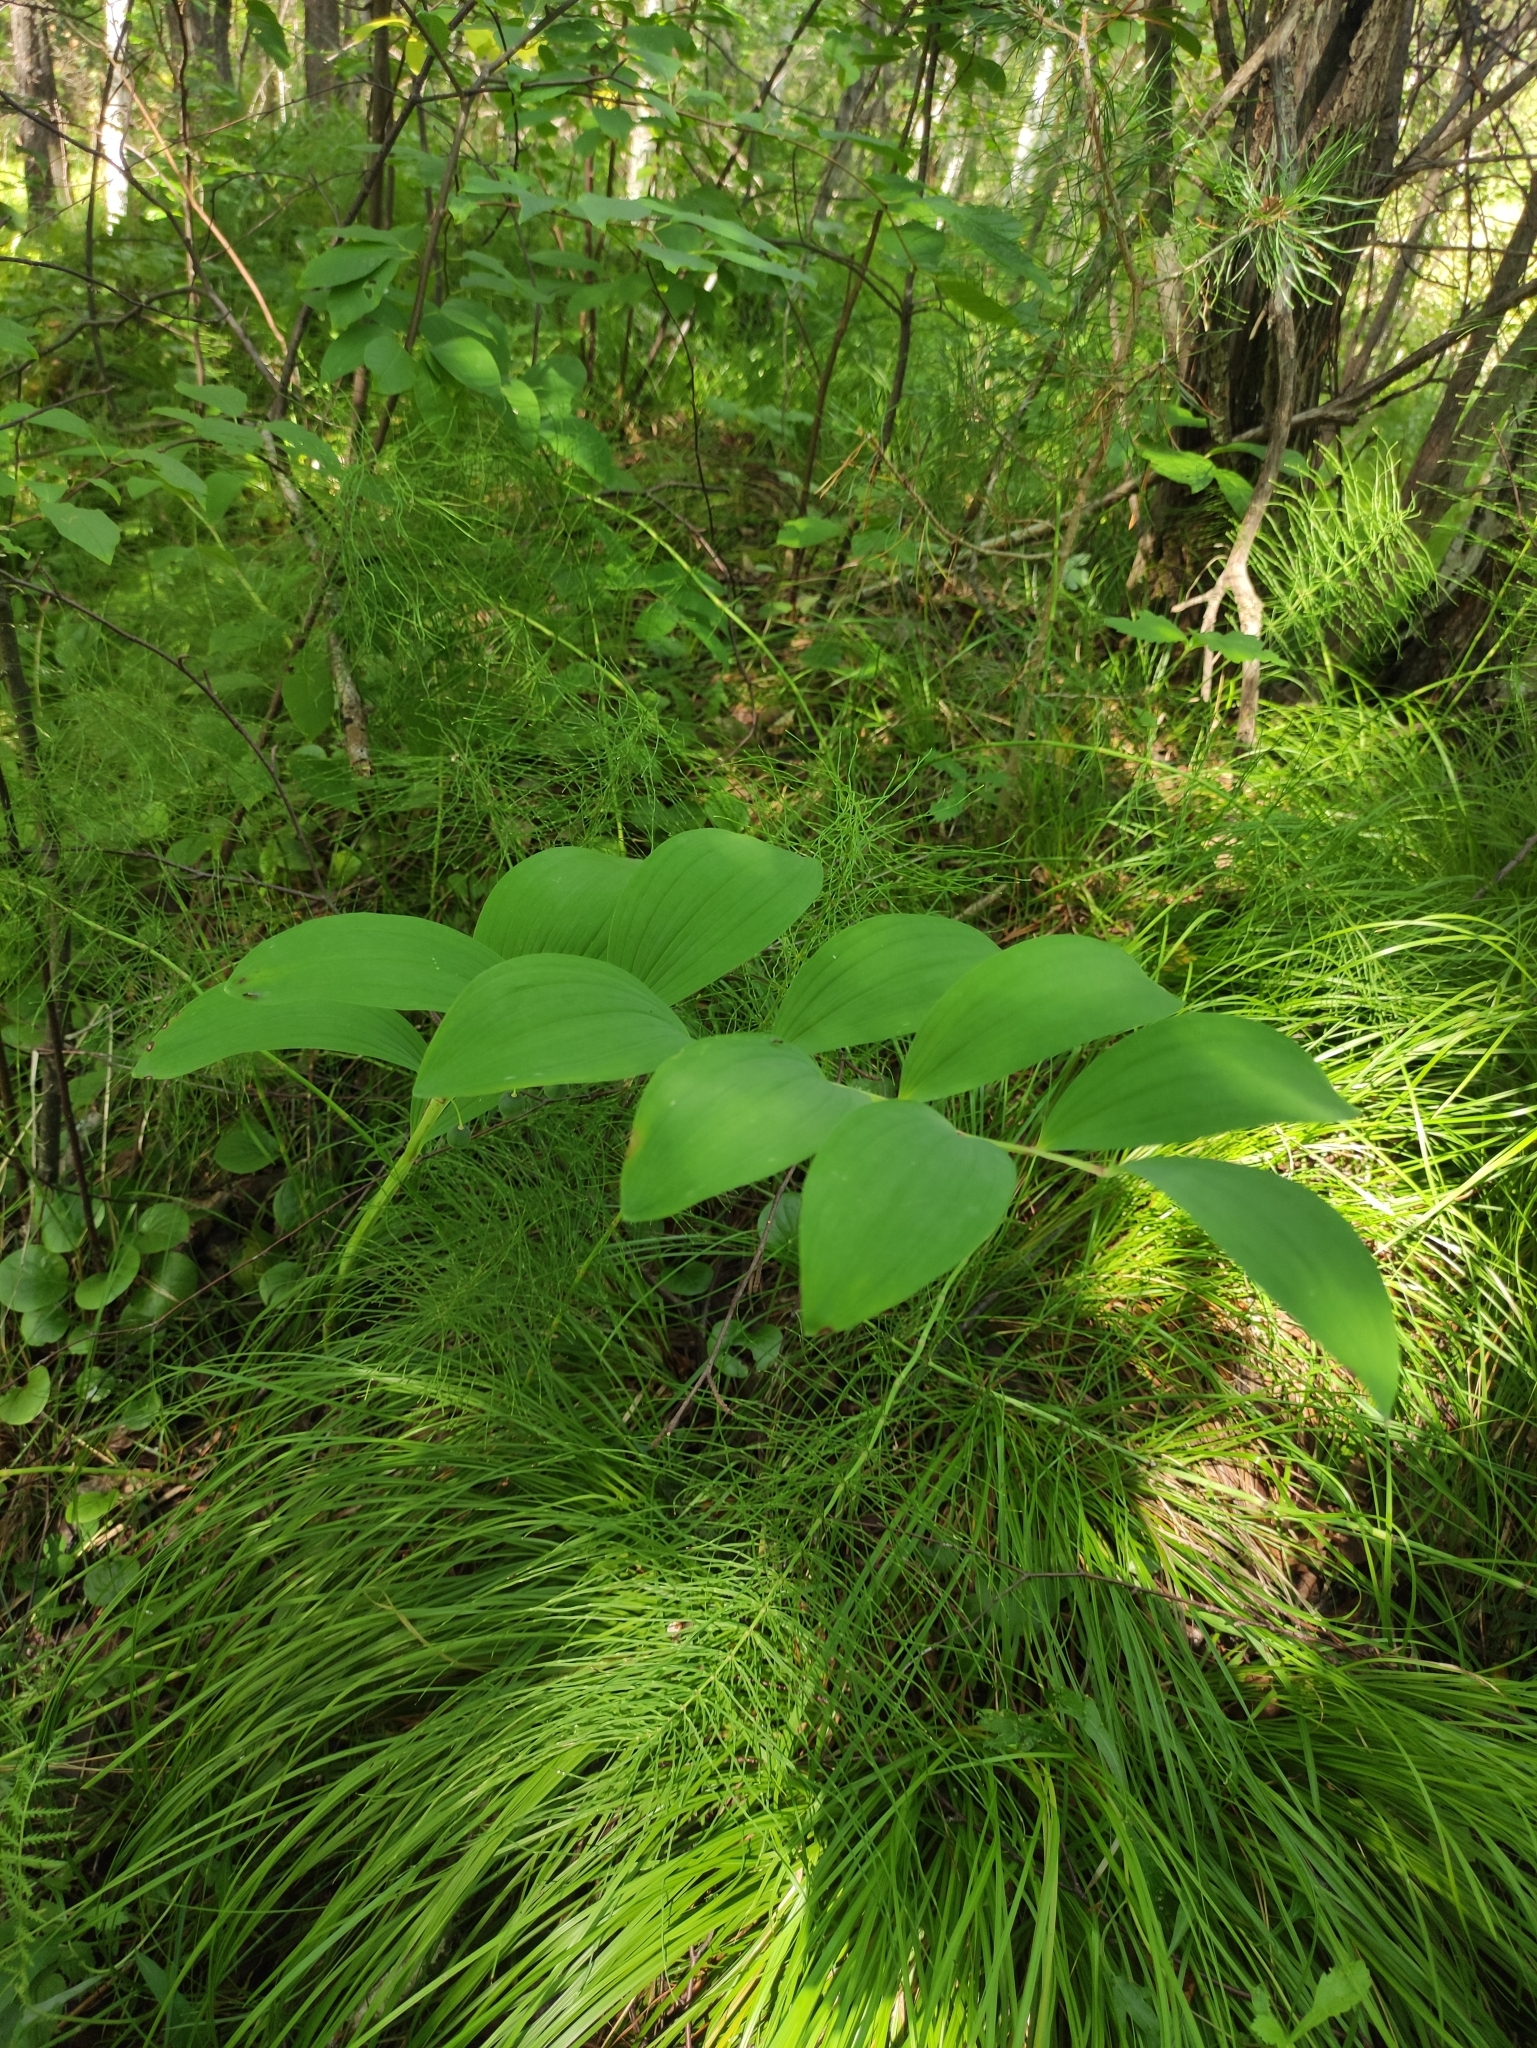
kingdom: Plantae
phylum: Tracheophyta
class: Liliopsida
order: Asparagales
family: Asparagaceae
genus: Polygonatum
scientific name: Polygonatum odoratum
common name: Angular solomon's-seal
